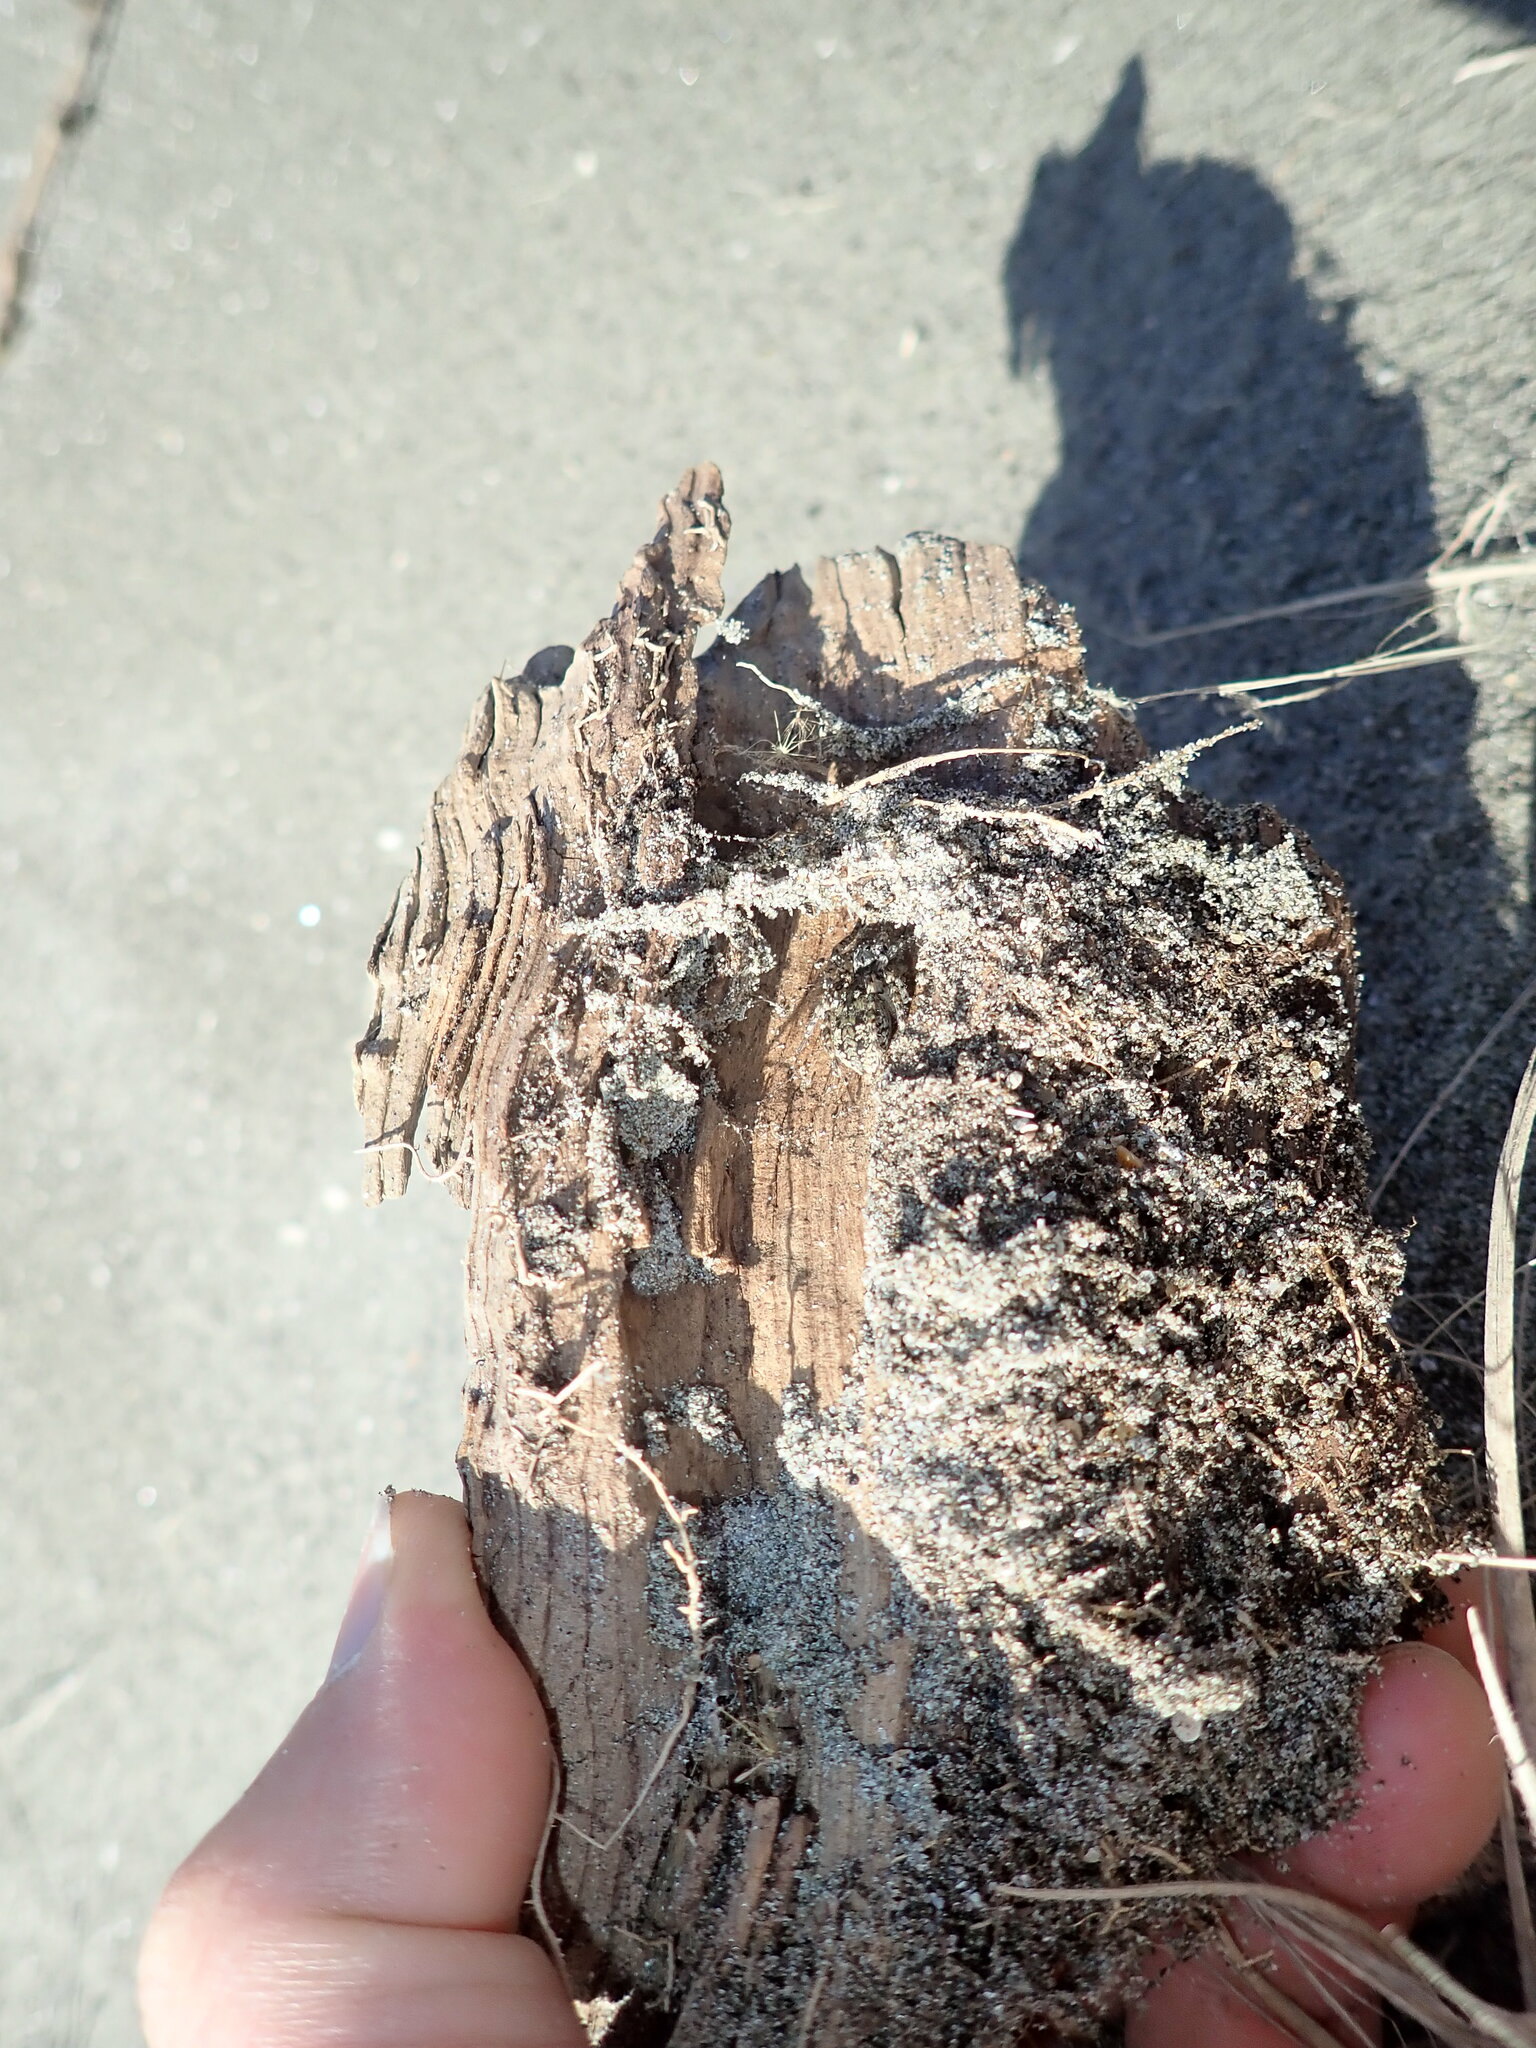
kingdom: Animalia
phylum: Arthropoda
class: Arachnida
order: Araneae
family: Lycosidae
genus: Anoteropsis
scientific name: Anoteropsis litoralis
